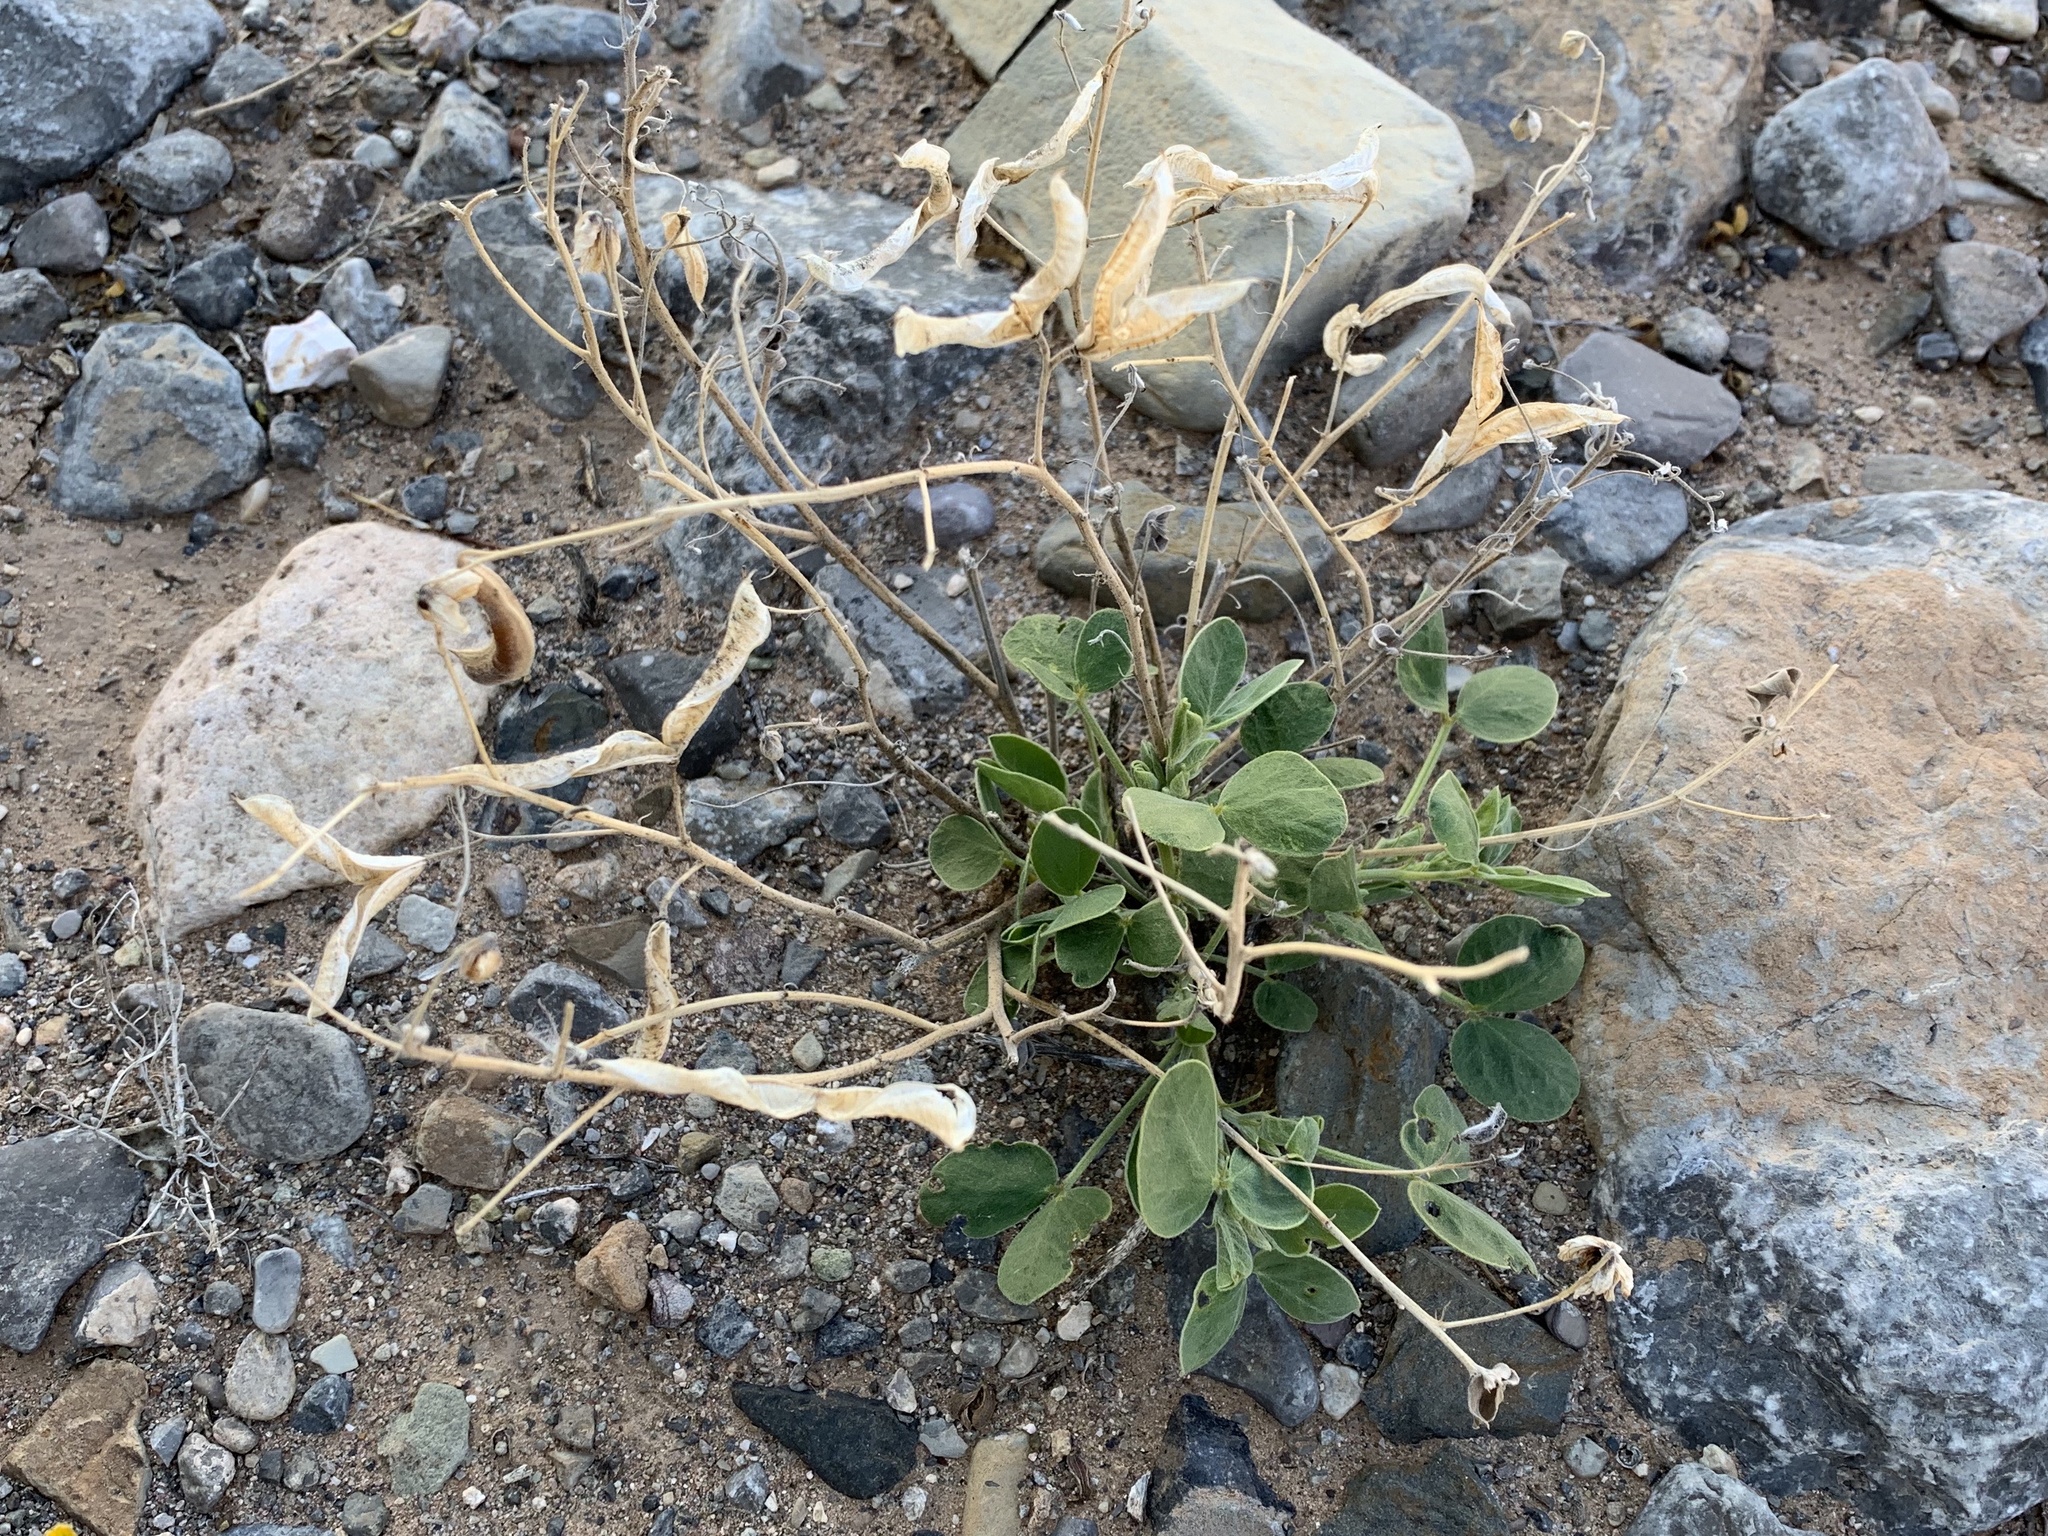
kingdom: Plantae
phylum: Tracheophyta
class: Magnoliopsida
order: Fabales
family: Fabaceae
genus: Senna
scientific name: Senna bauhinioides
